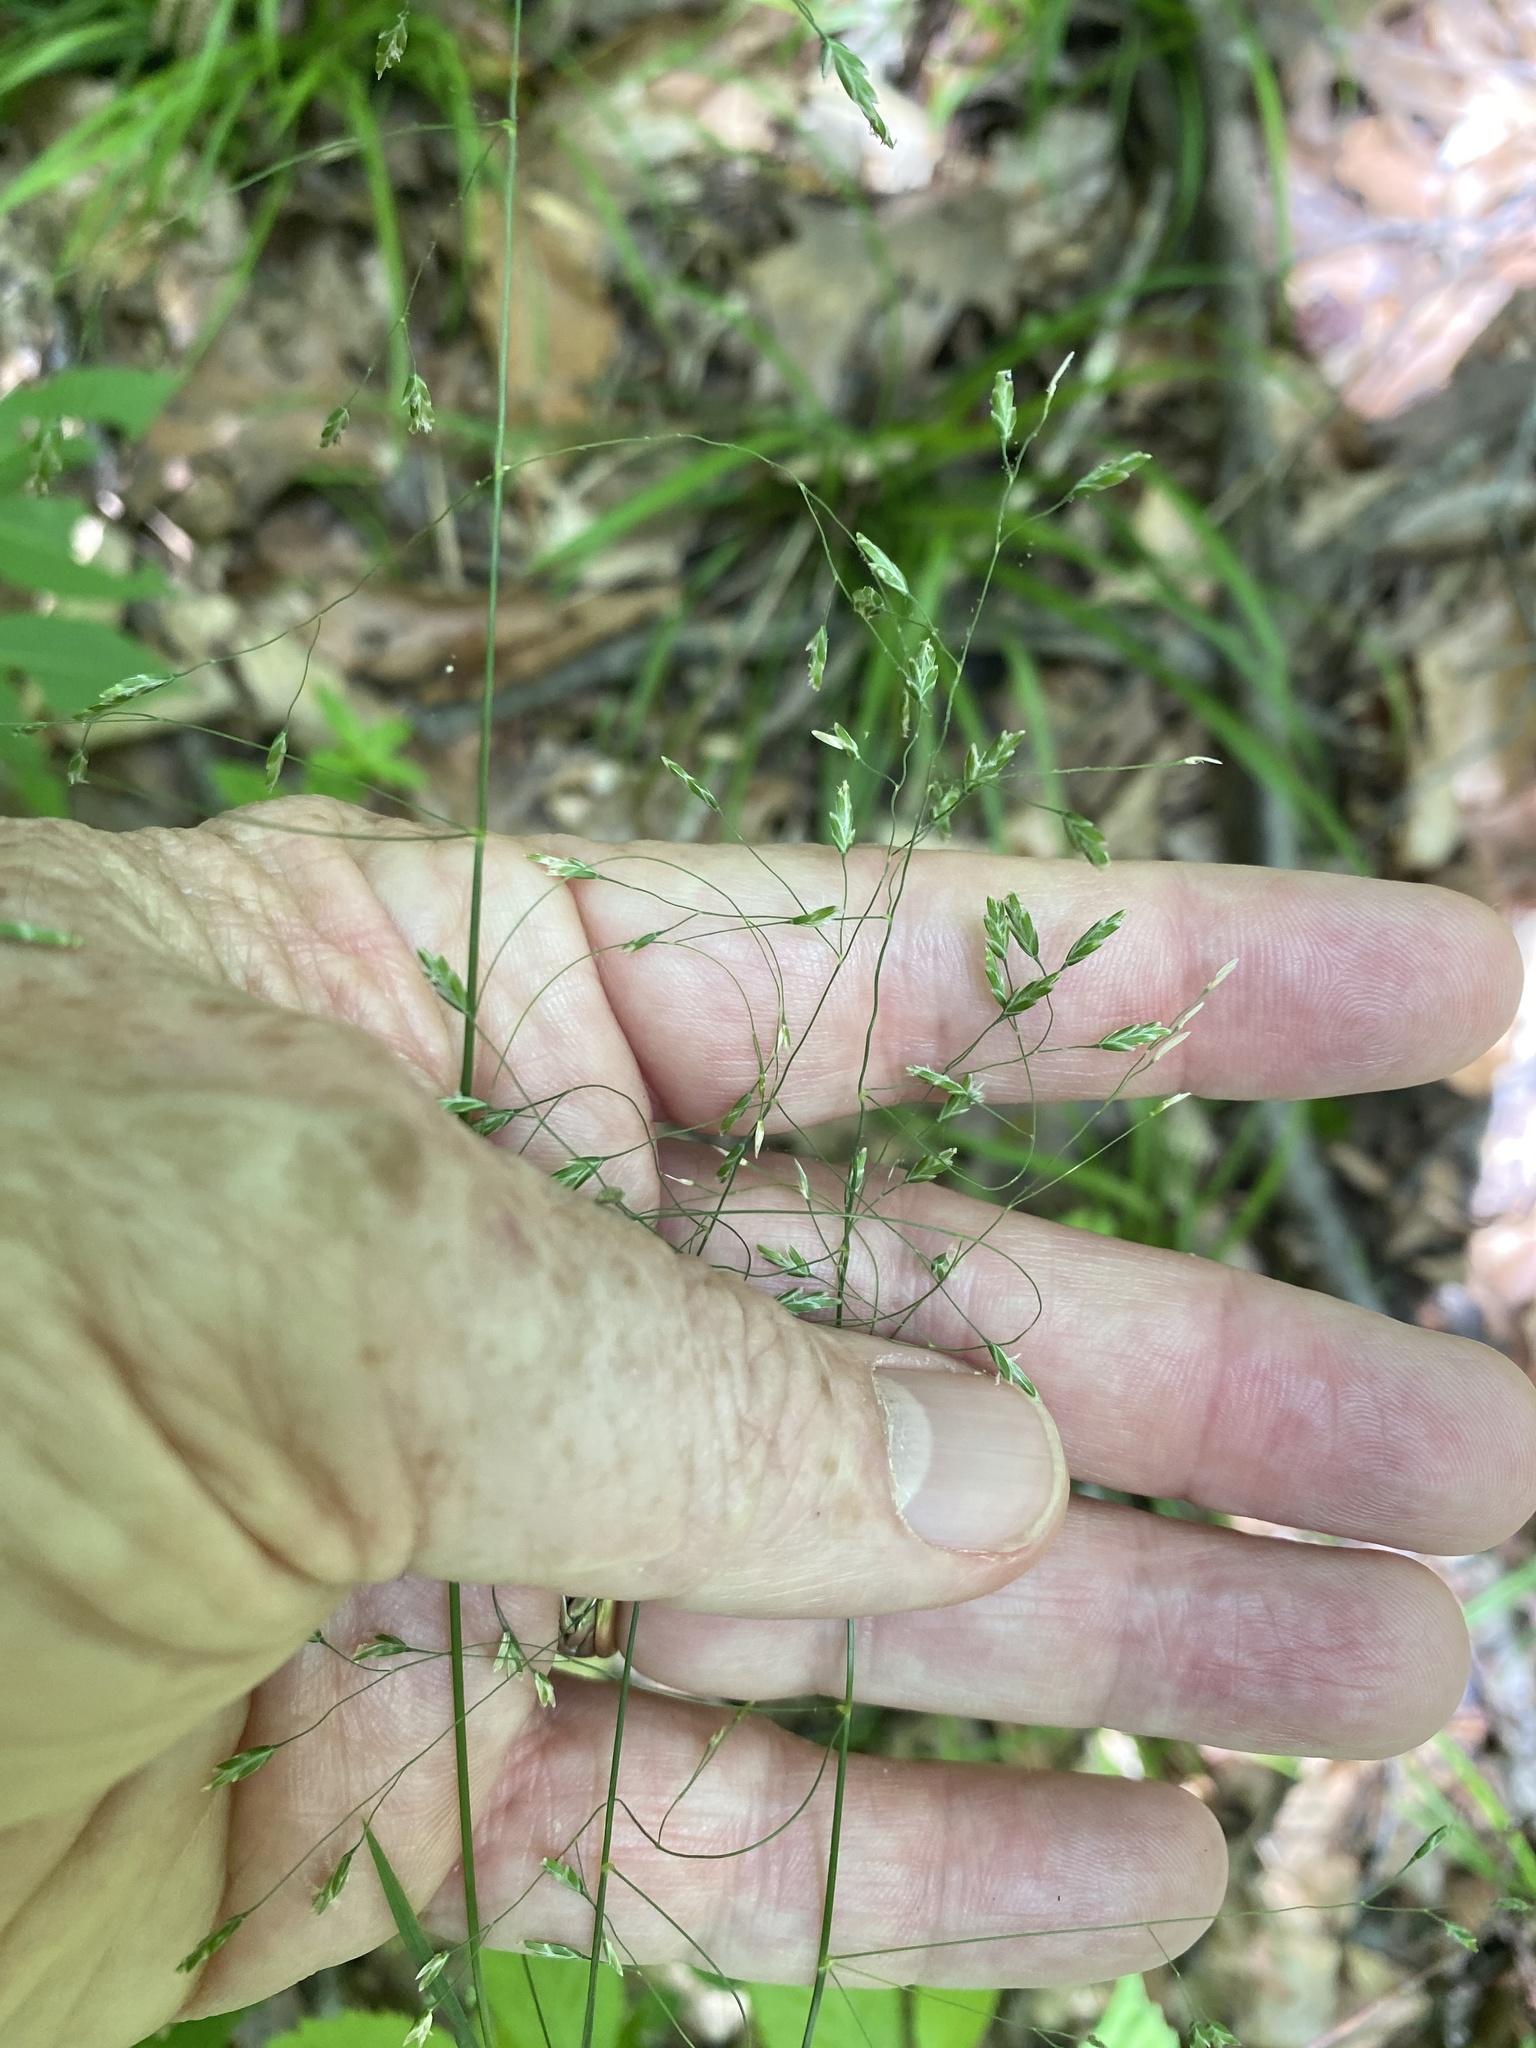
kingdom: Plantae
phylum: Tracheophyta
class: Liliopsida
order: Poales
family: Poaceae
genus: Poa
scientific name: Poa autumnalis
